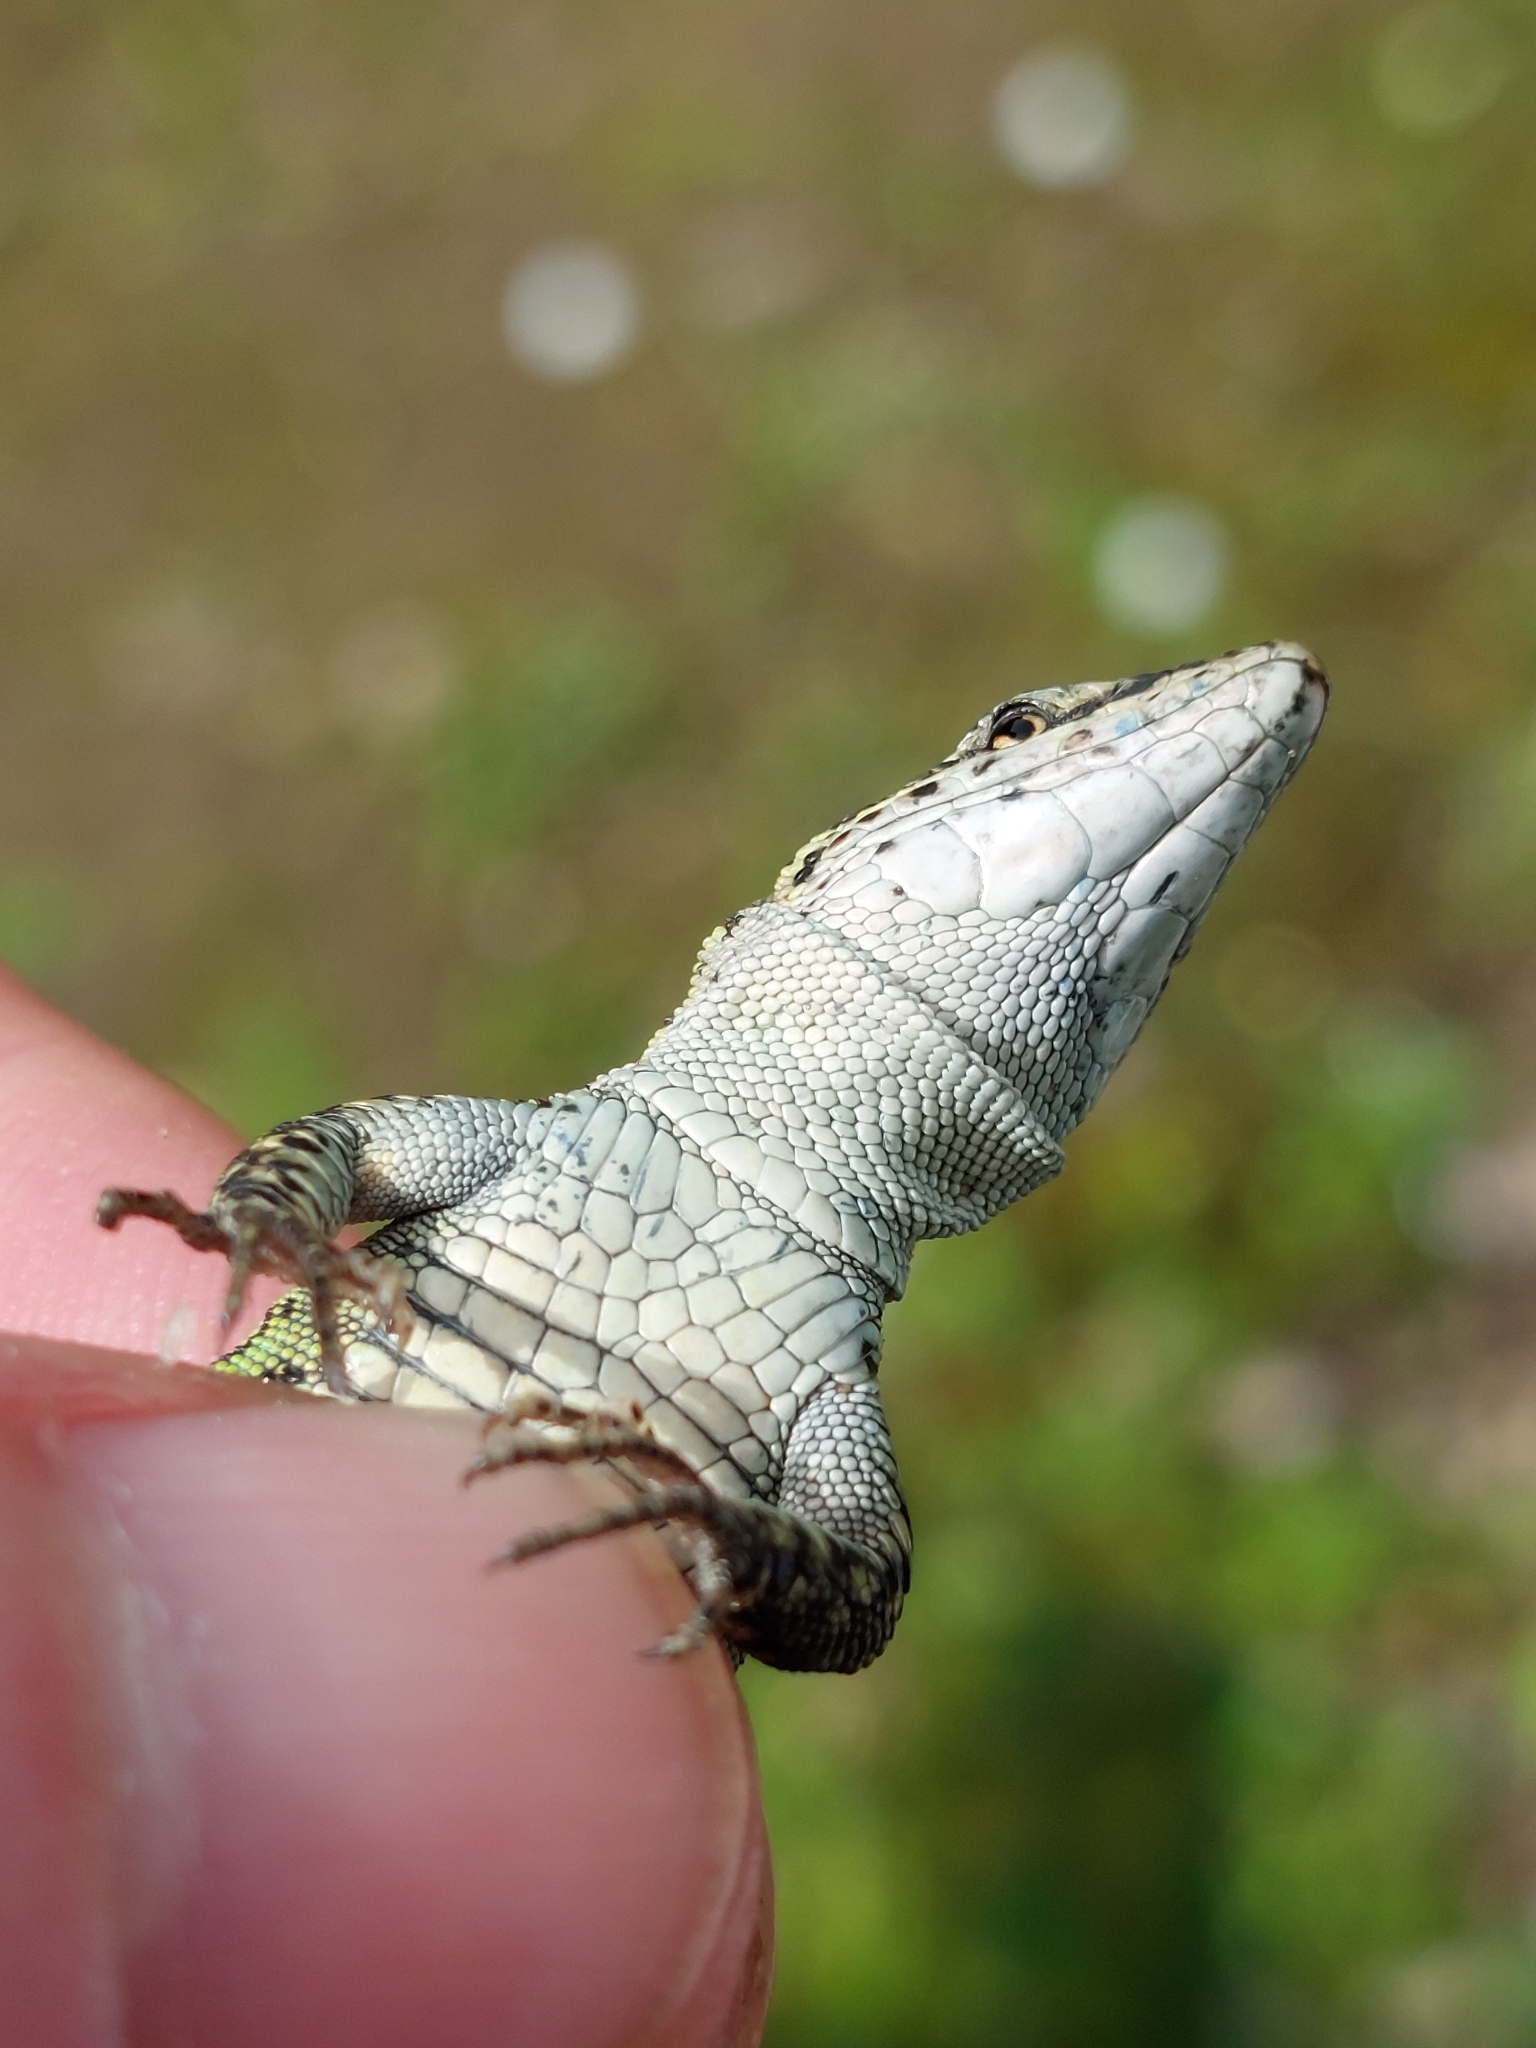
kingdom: Animalia
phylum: Chordata
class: Squamata
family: Lacertidae
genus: Podarcis
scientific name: Podarcis vaucheri
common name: Vaucher's wall lizard
